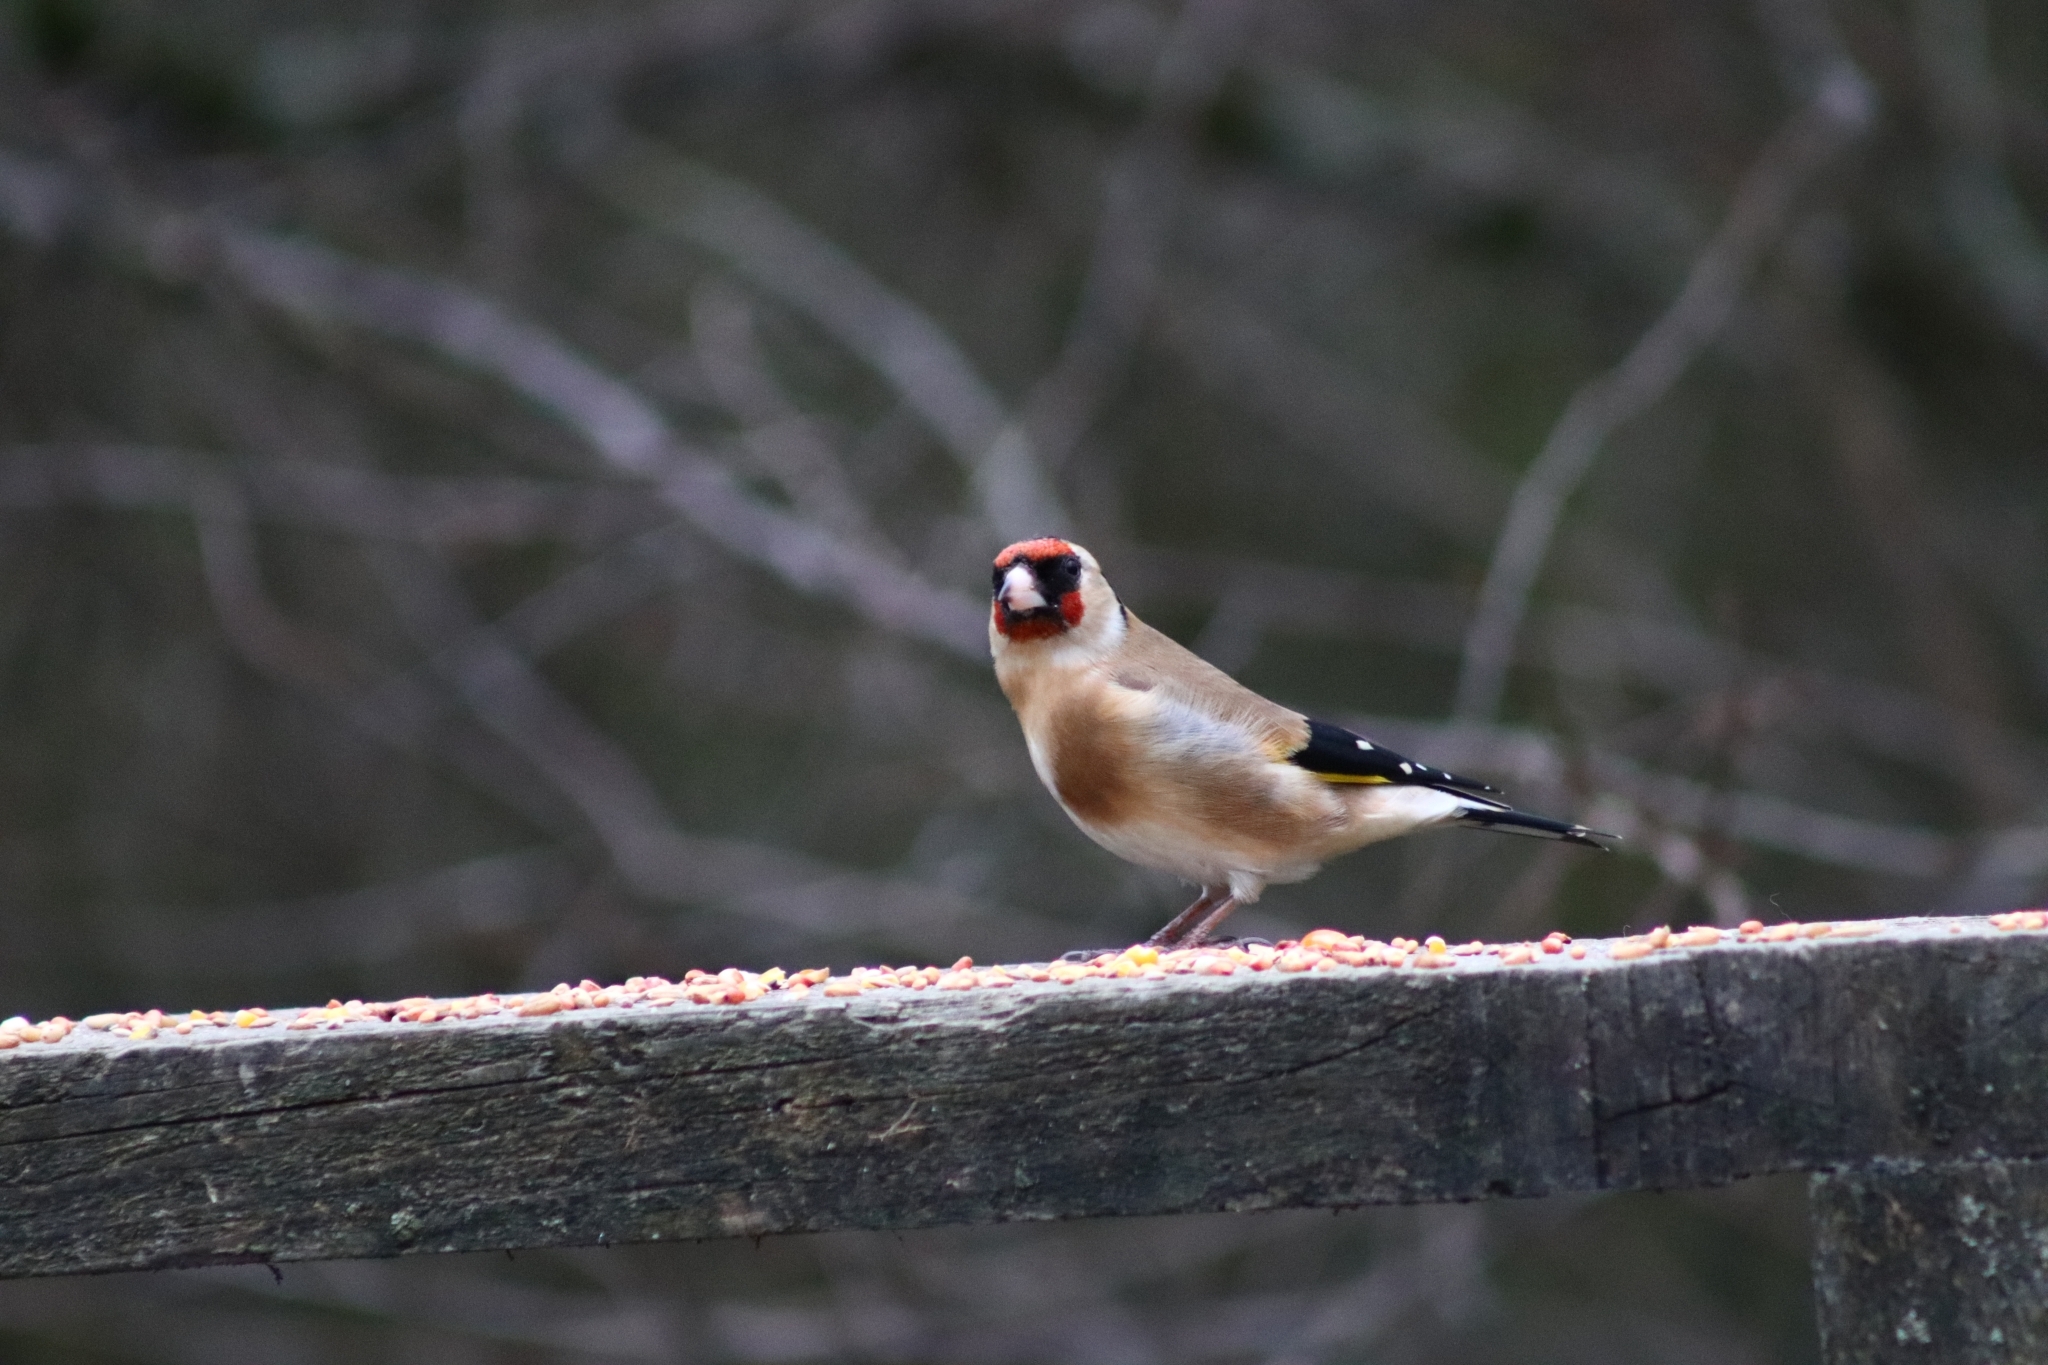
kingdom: Animalia
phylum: Chordata
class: Aves
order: Passeriformes
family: Fringillidae
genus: Carduelis
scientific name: Carduelis carduelis
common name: European goldfinch
